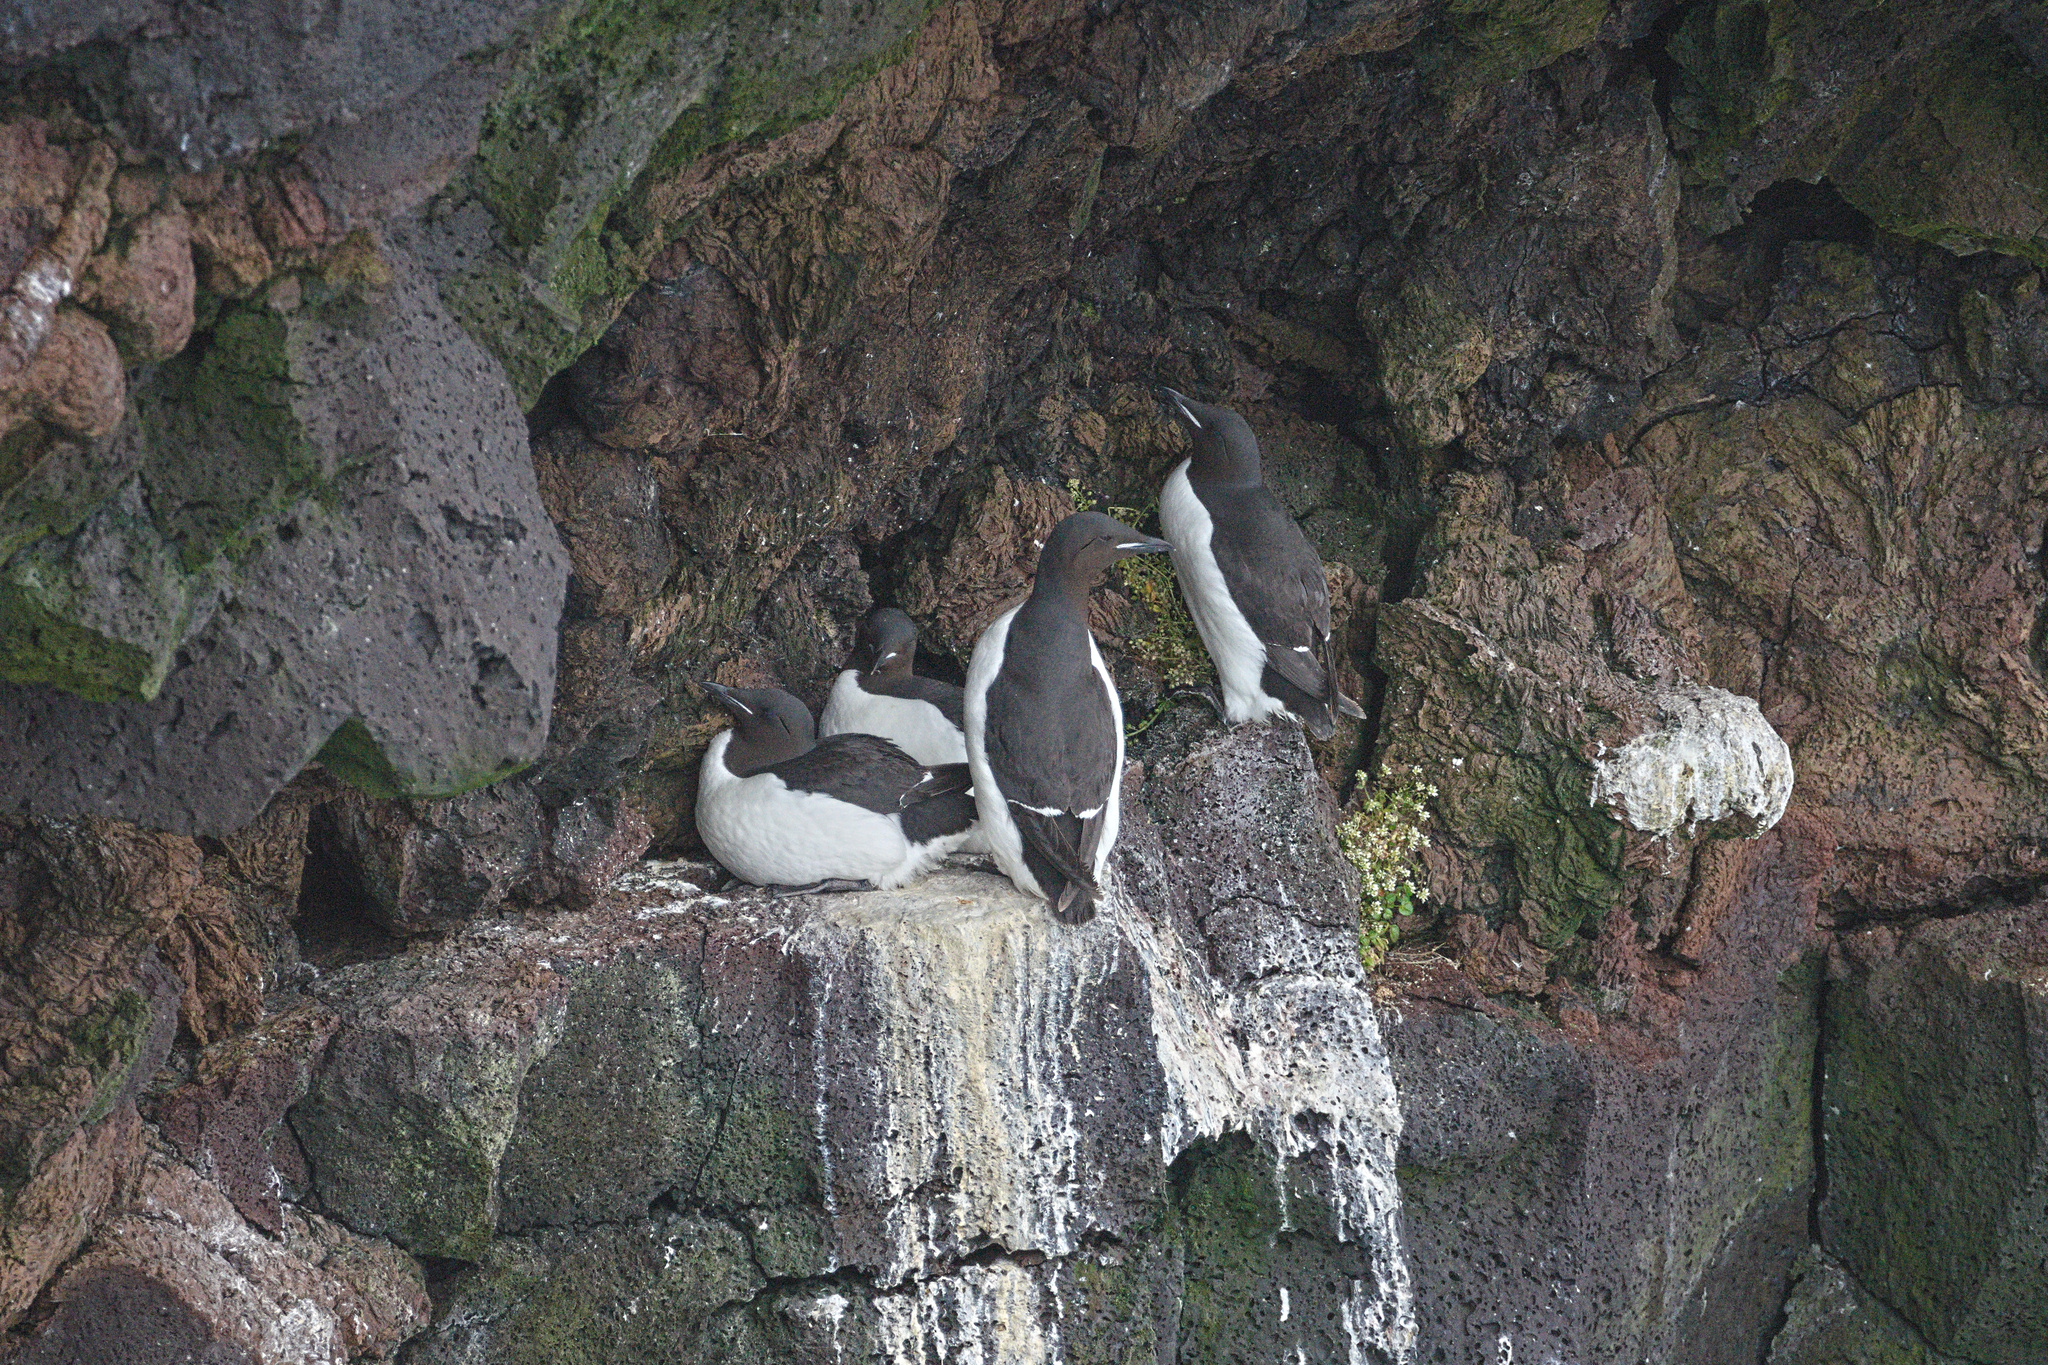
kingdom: Animalia
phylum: Chordata
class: Aves
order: Charadriiformes
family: Alcidae
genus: Uria
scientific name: Uria lomvia
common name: Thick-billed murre
